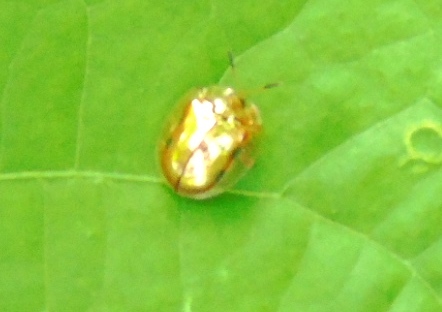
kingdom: Animalia
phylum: Arthropoda
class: Insecta
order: Coleoptera
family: Chrysomelidae
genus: Charidotella
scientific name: Charidotella sexpunctata
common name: Golden tortoise beetle
